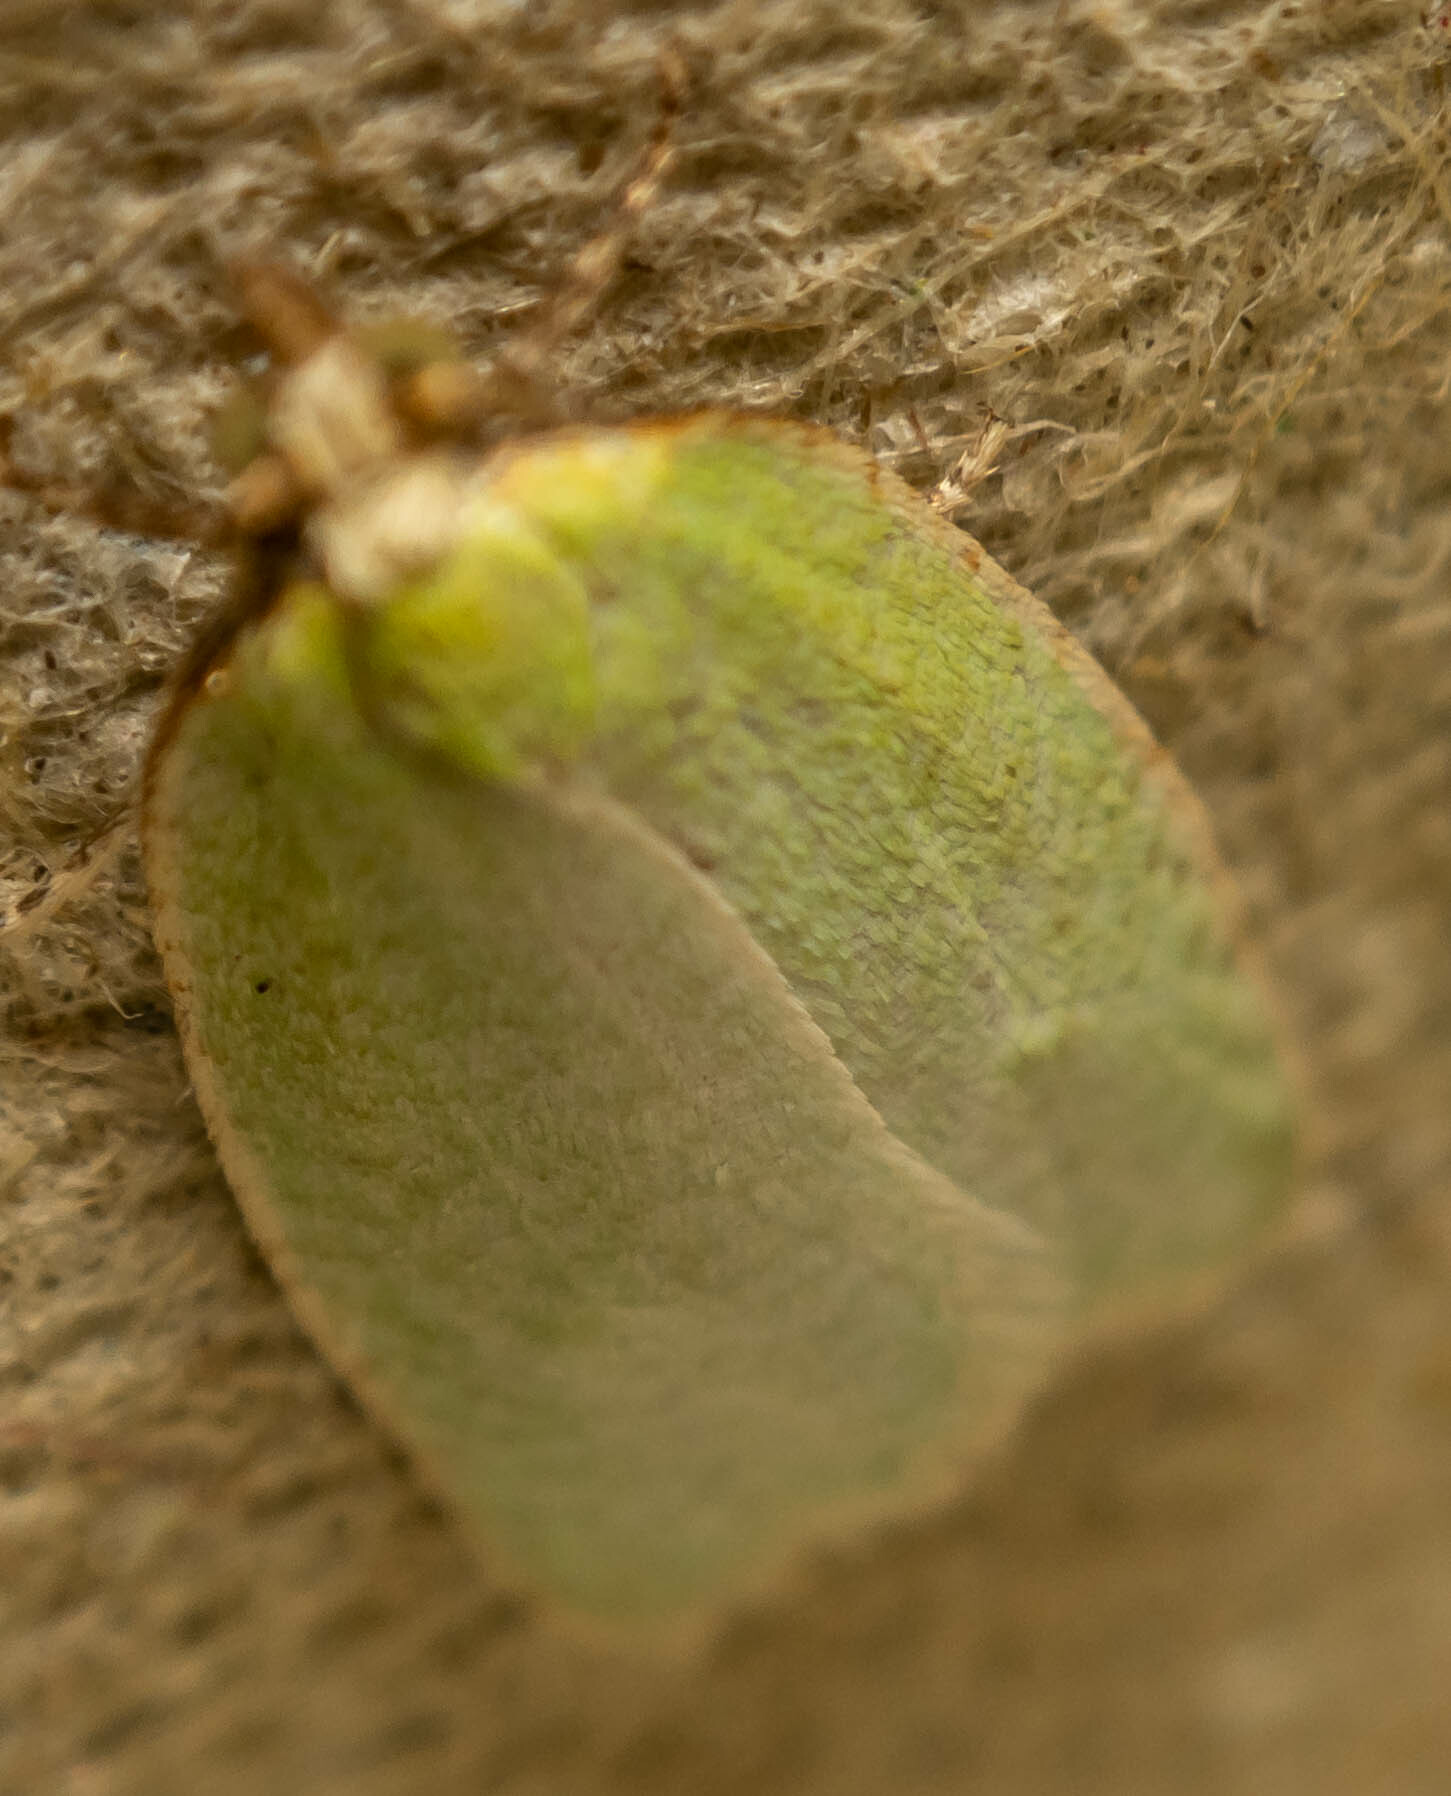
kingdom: Animalia
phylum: Arthropoda
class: Insecta
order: Lepidoptera
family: Tortricidae
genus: Tortrix
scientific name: Tortrix viridana
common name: Green oak tortrix
